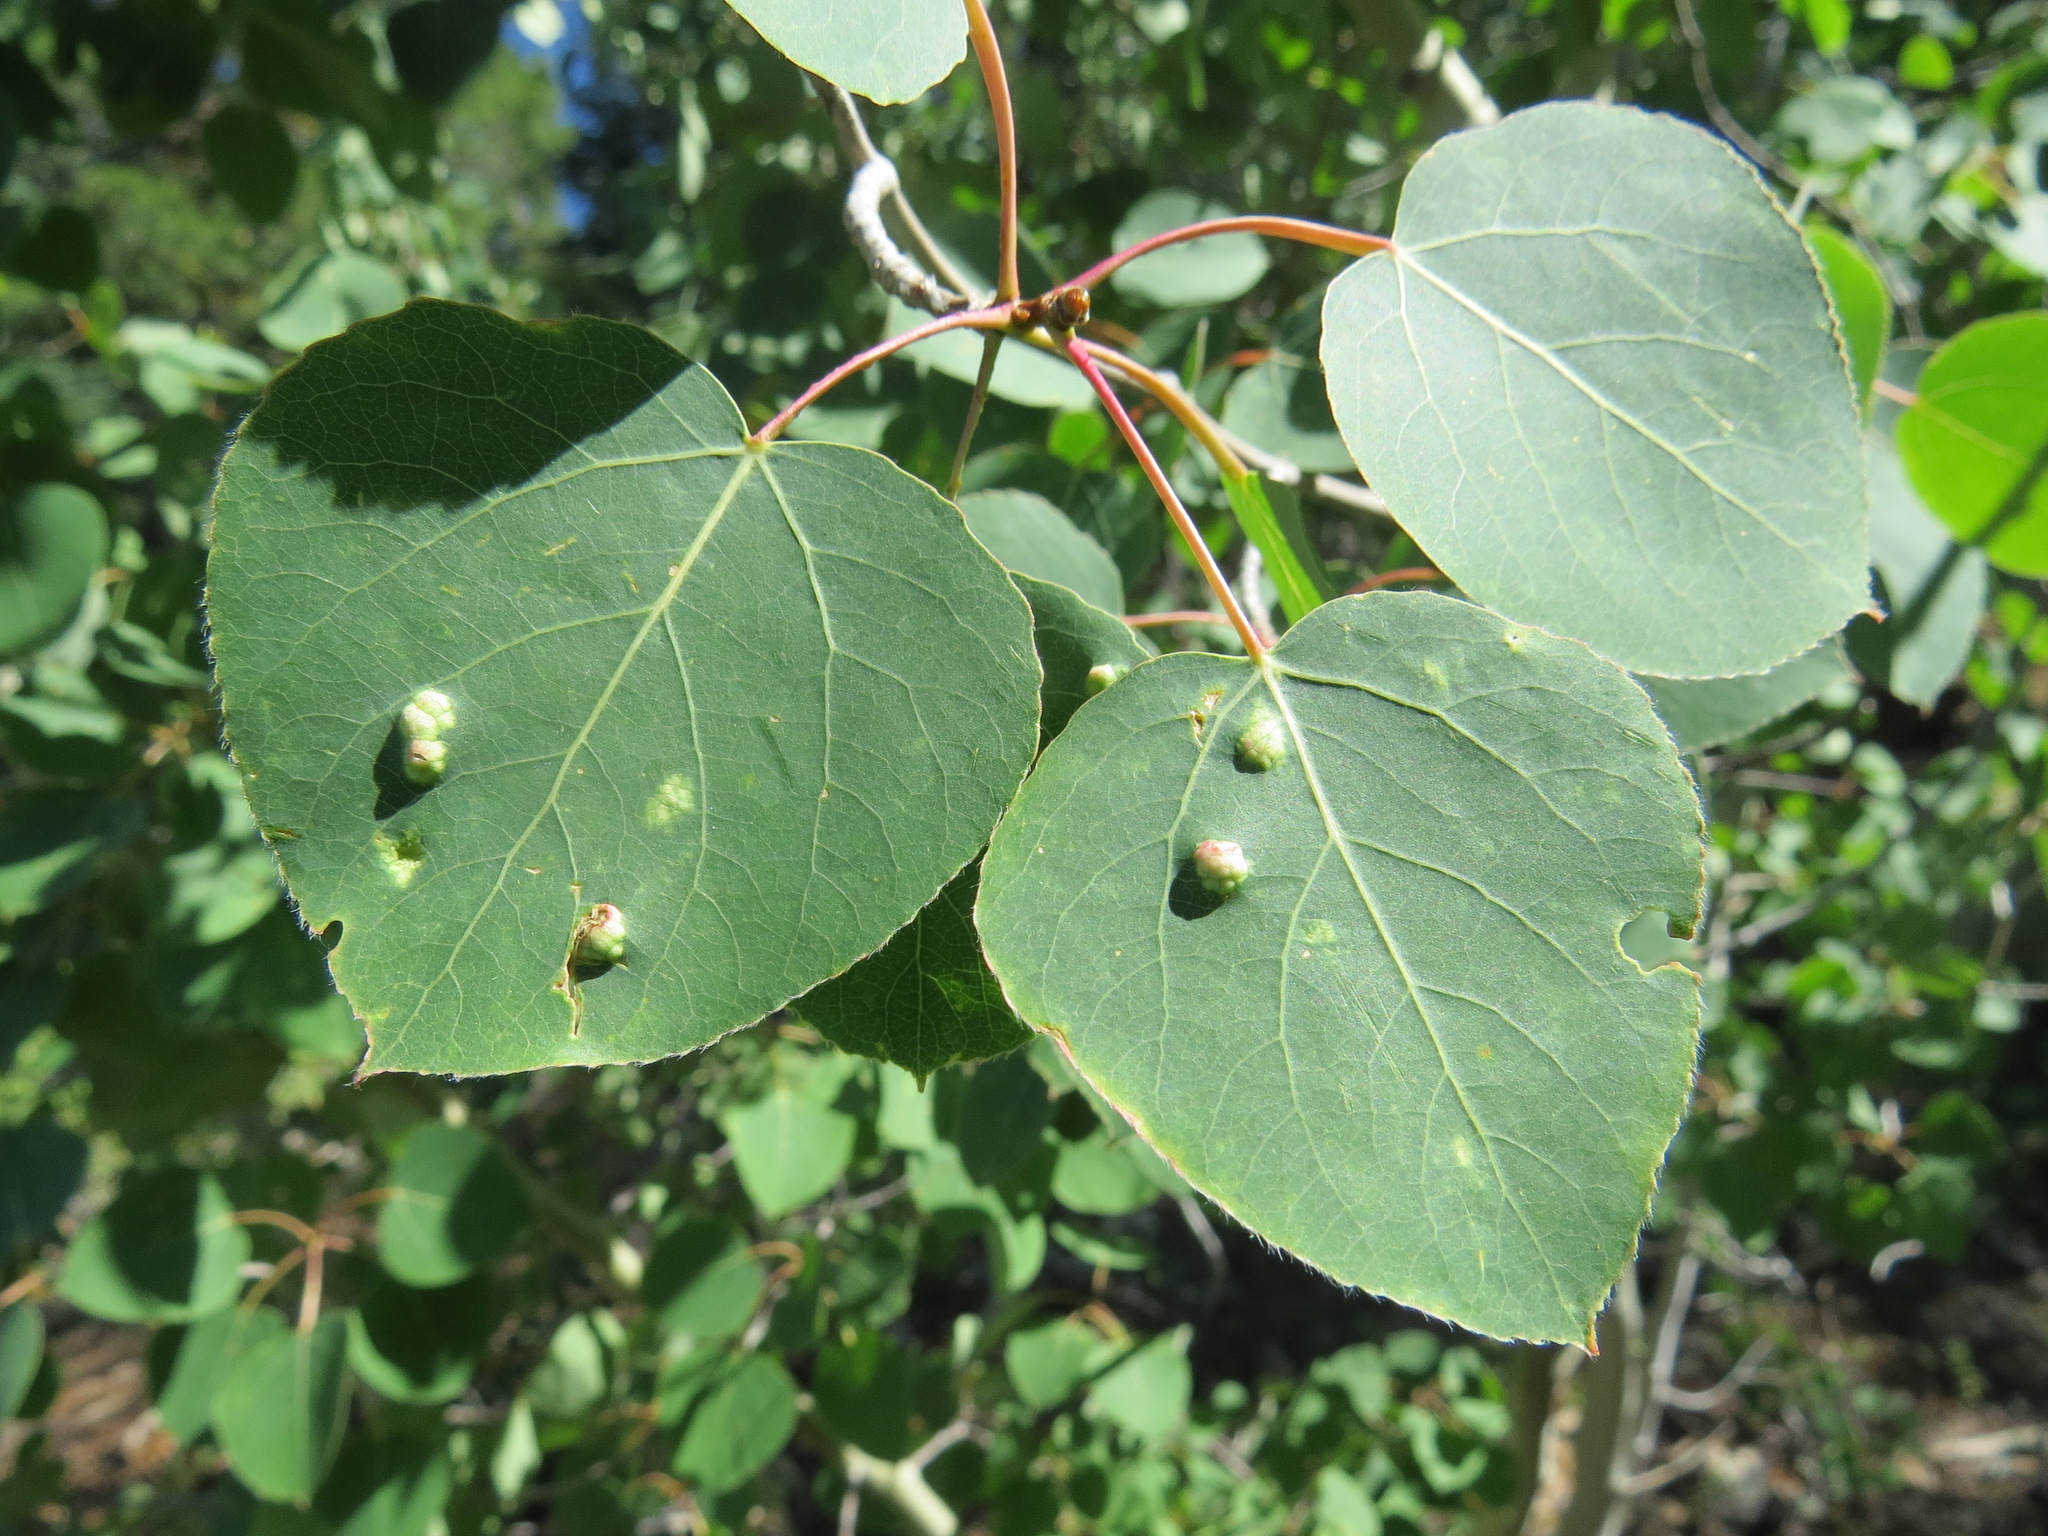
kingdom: Animalia
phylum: Arthropoda
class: Arachnida
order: Trombidiformes
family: Eriophyidae
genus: Phyllocoptes
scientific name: Phyllocoptes
